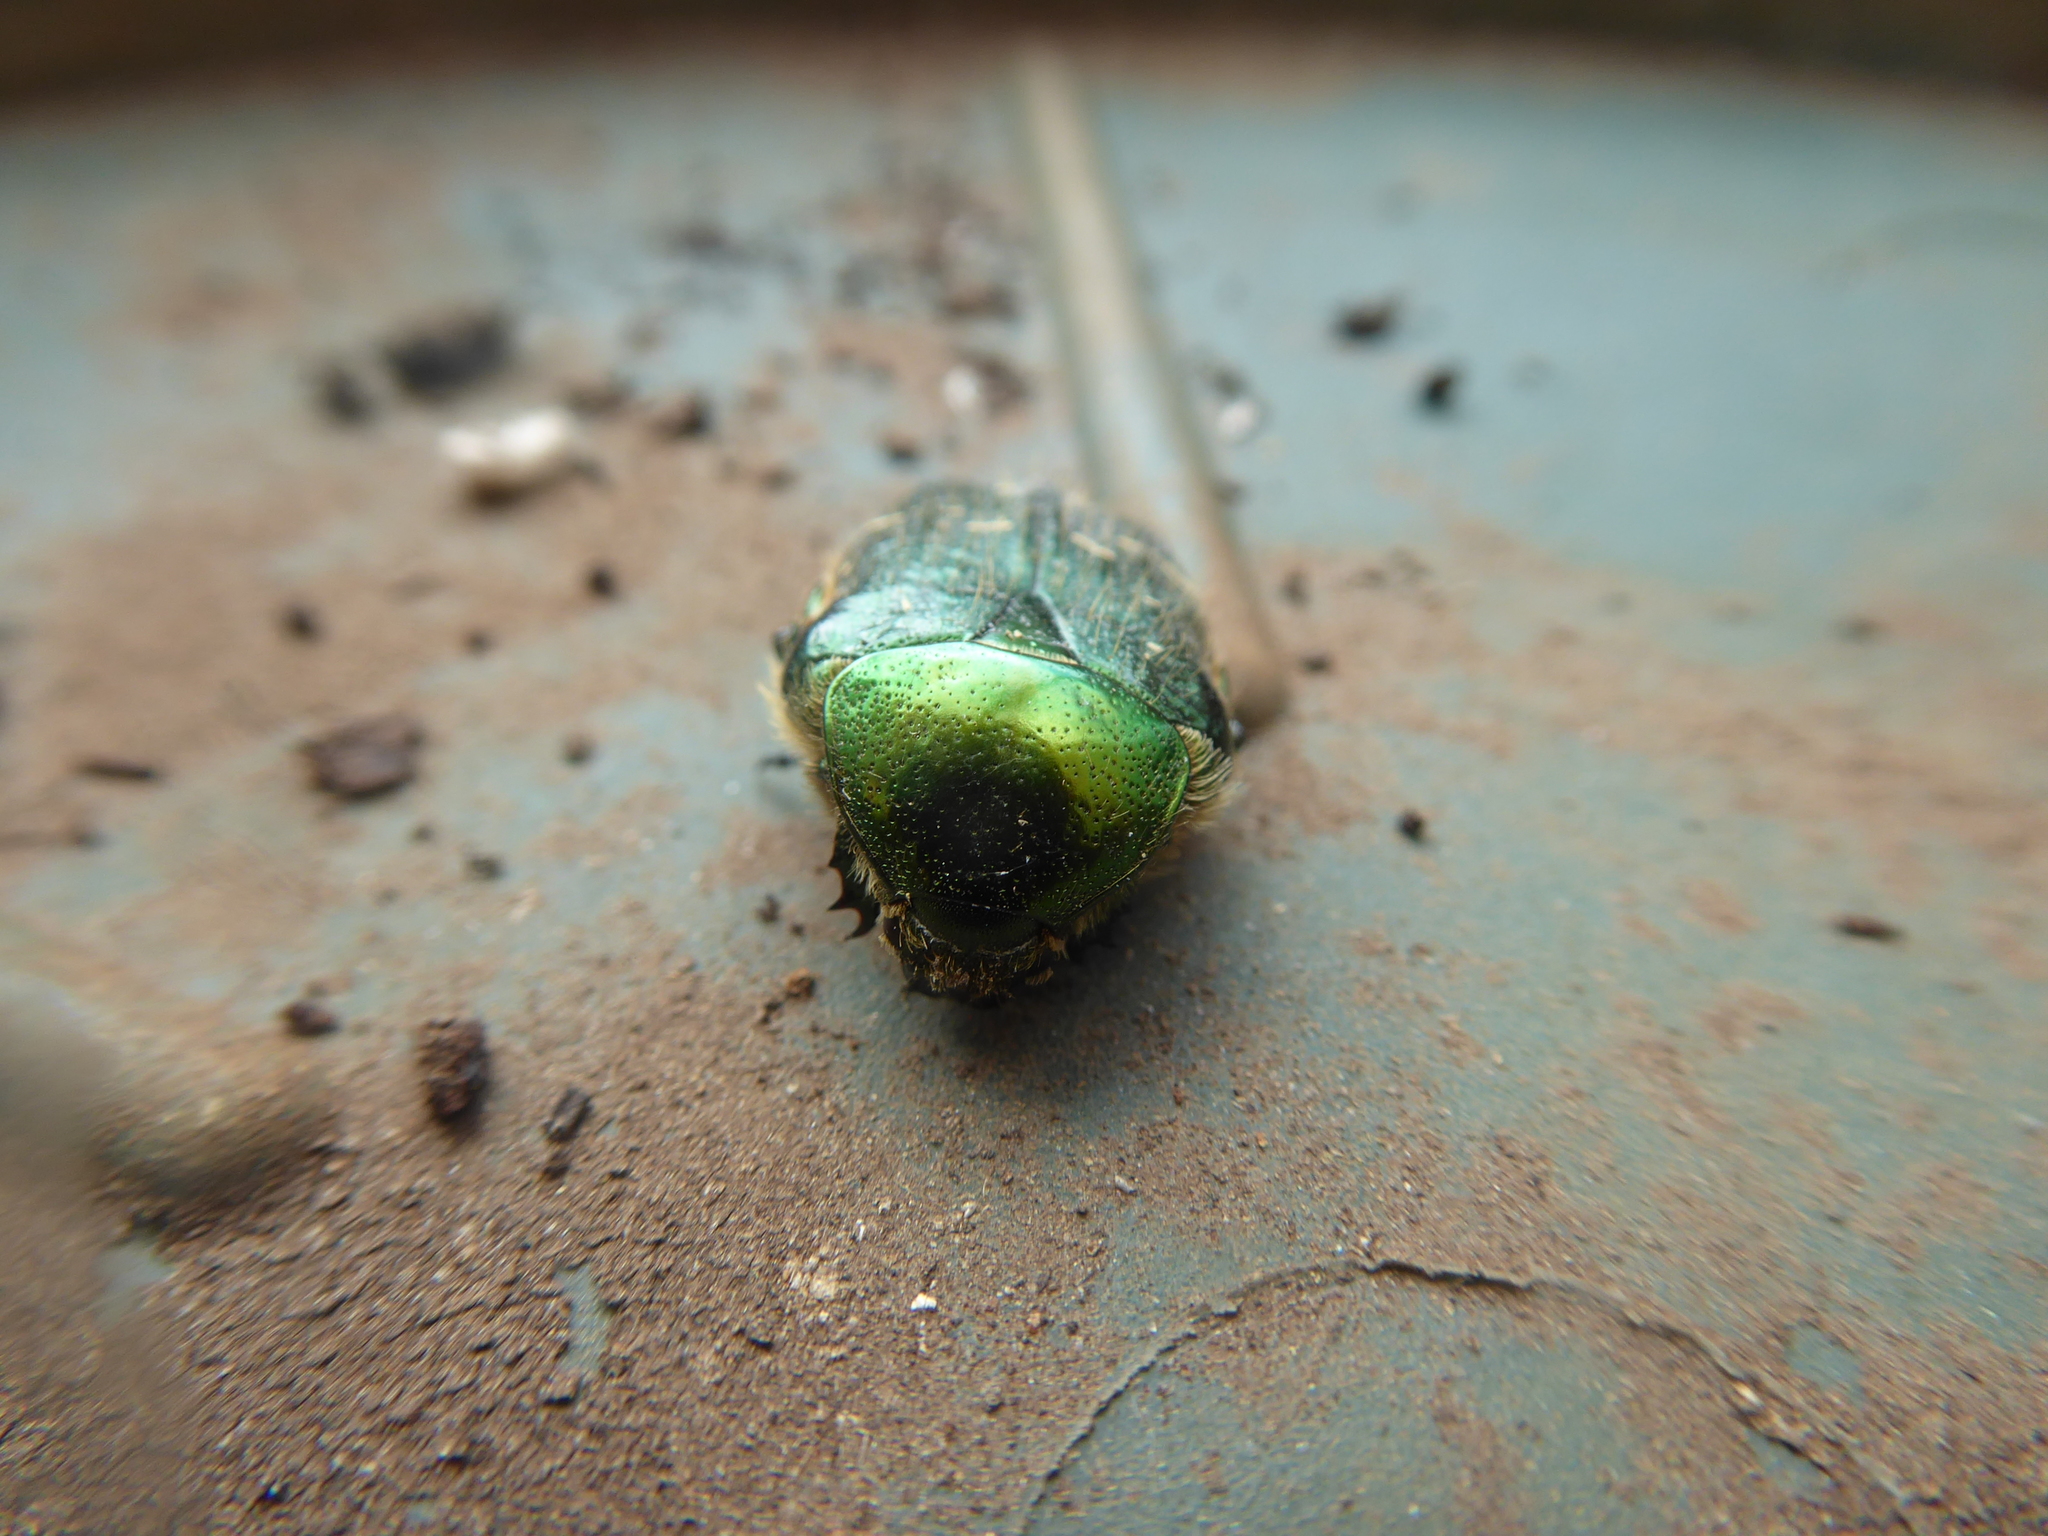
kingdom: Animalia
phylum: Arthropoda
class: Insecta
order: Coleoptera
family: Scarabaeidae
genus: Cetonia
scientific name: Cetonia aurata
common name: Rose chafer
